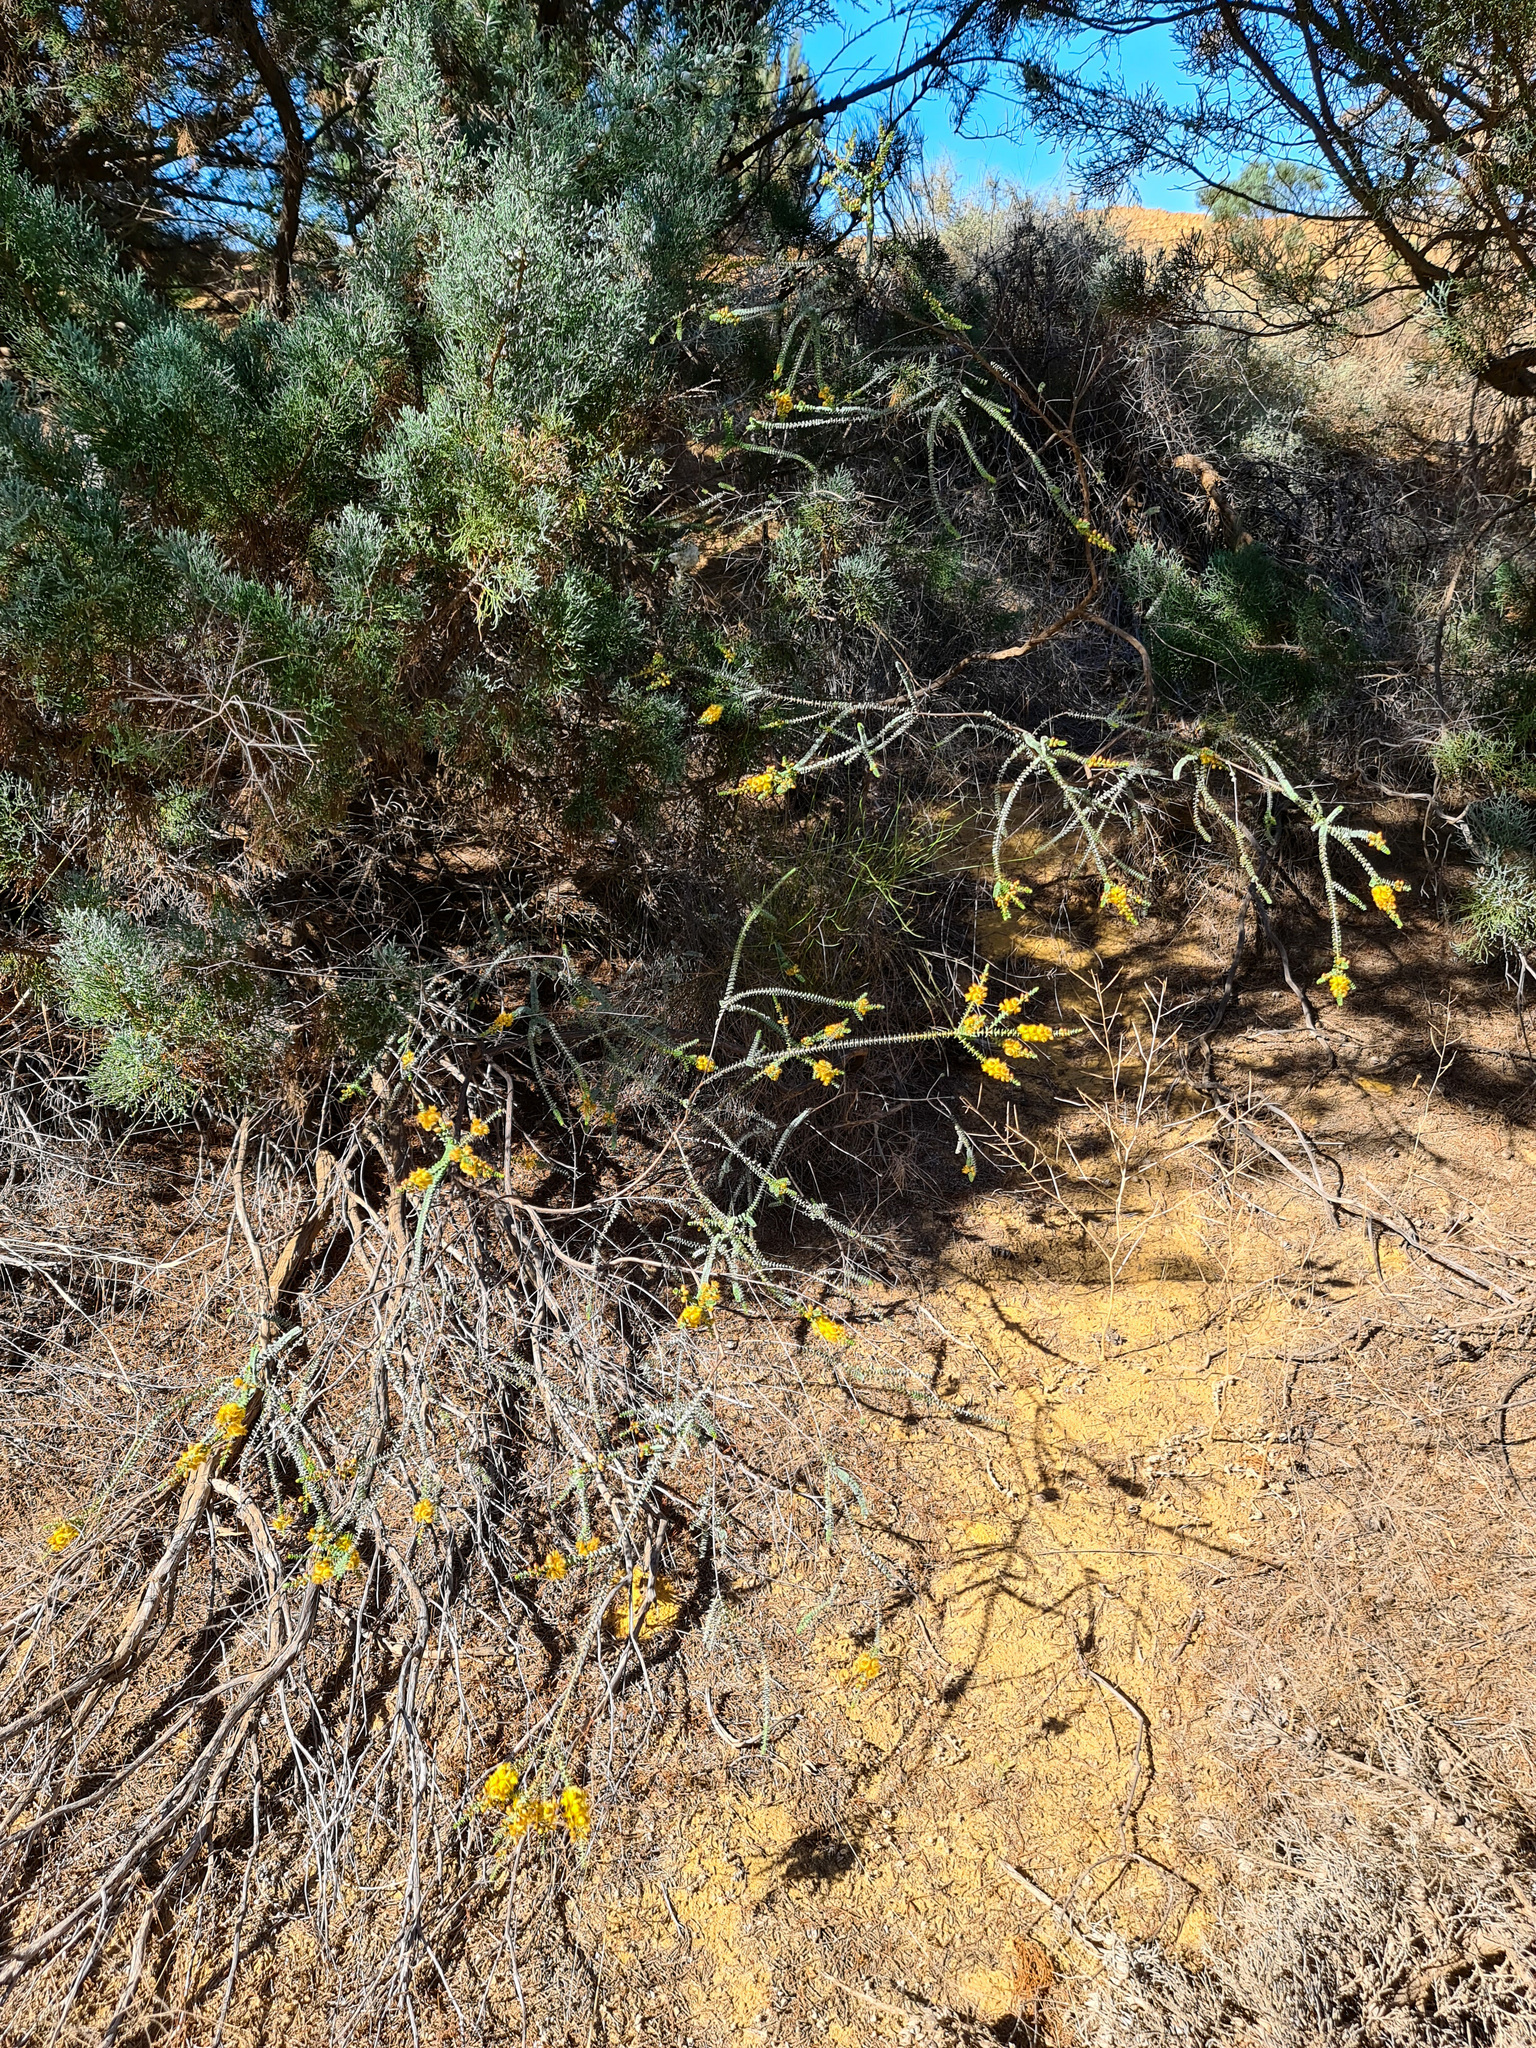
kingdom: Plantae
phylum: Tracheophyta
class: Magnoliopsida
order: Myrtales
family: Myrtaceae
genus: Verticordia
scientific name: Verticordia chrysostachys
